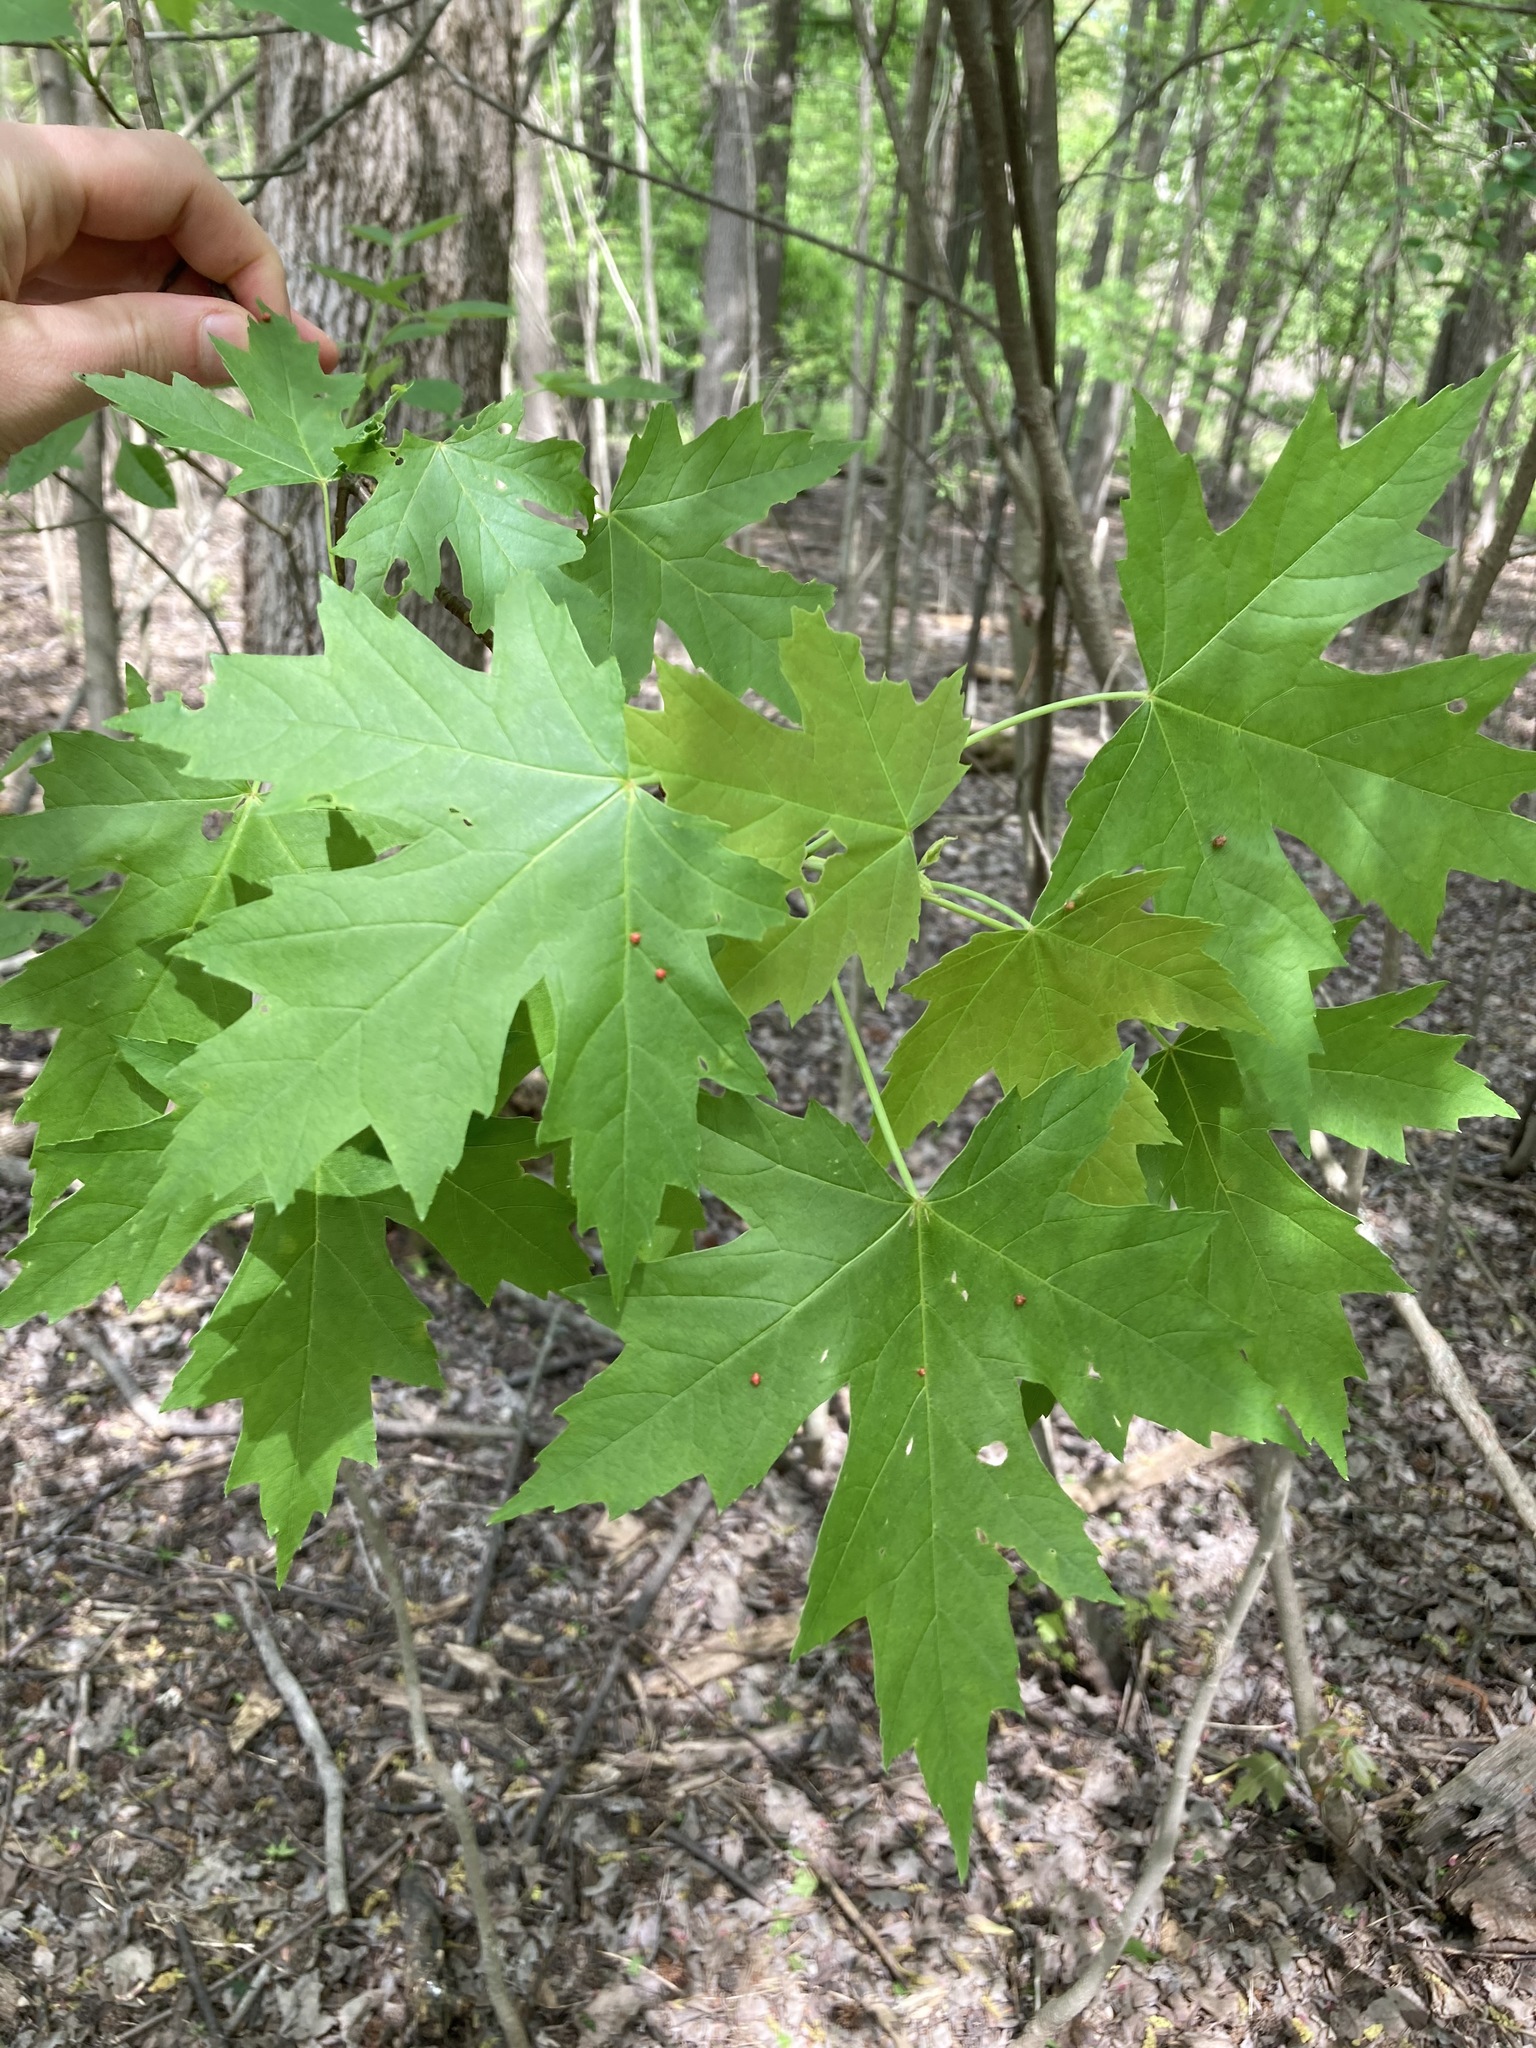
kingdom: Plantae
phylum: Tracheophyta
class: Magnoliopsida
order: Sapindales
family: Sapindaceae
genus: Acer
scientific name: Acer saccharinum
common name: Silver maple
